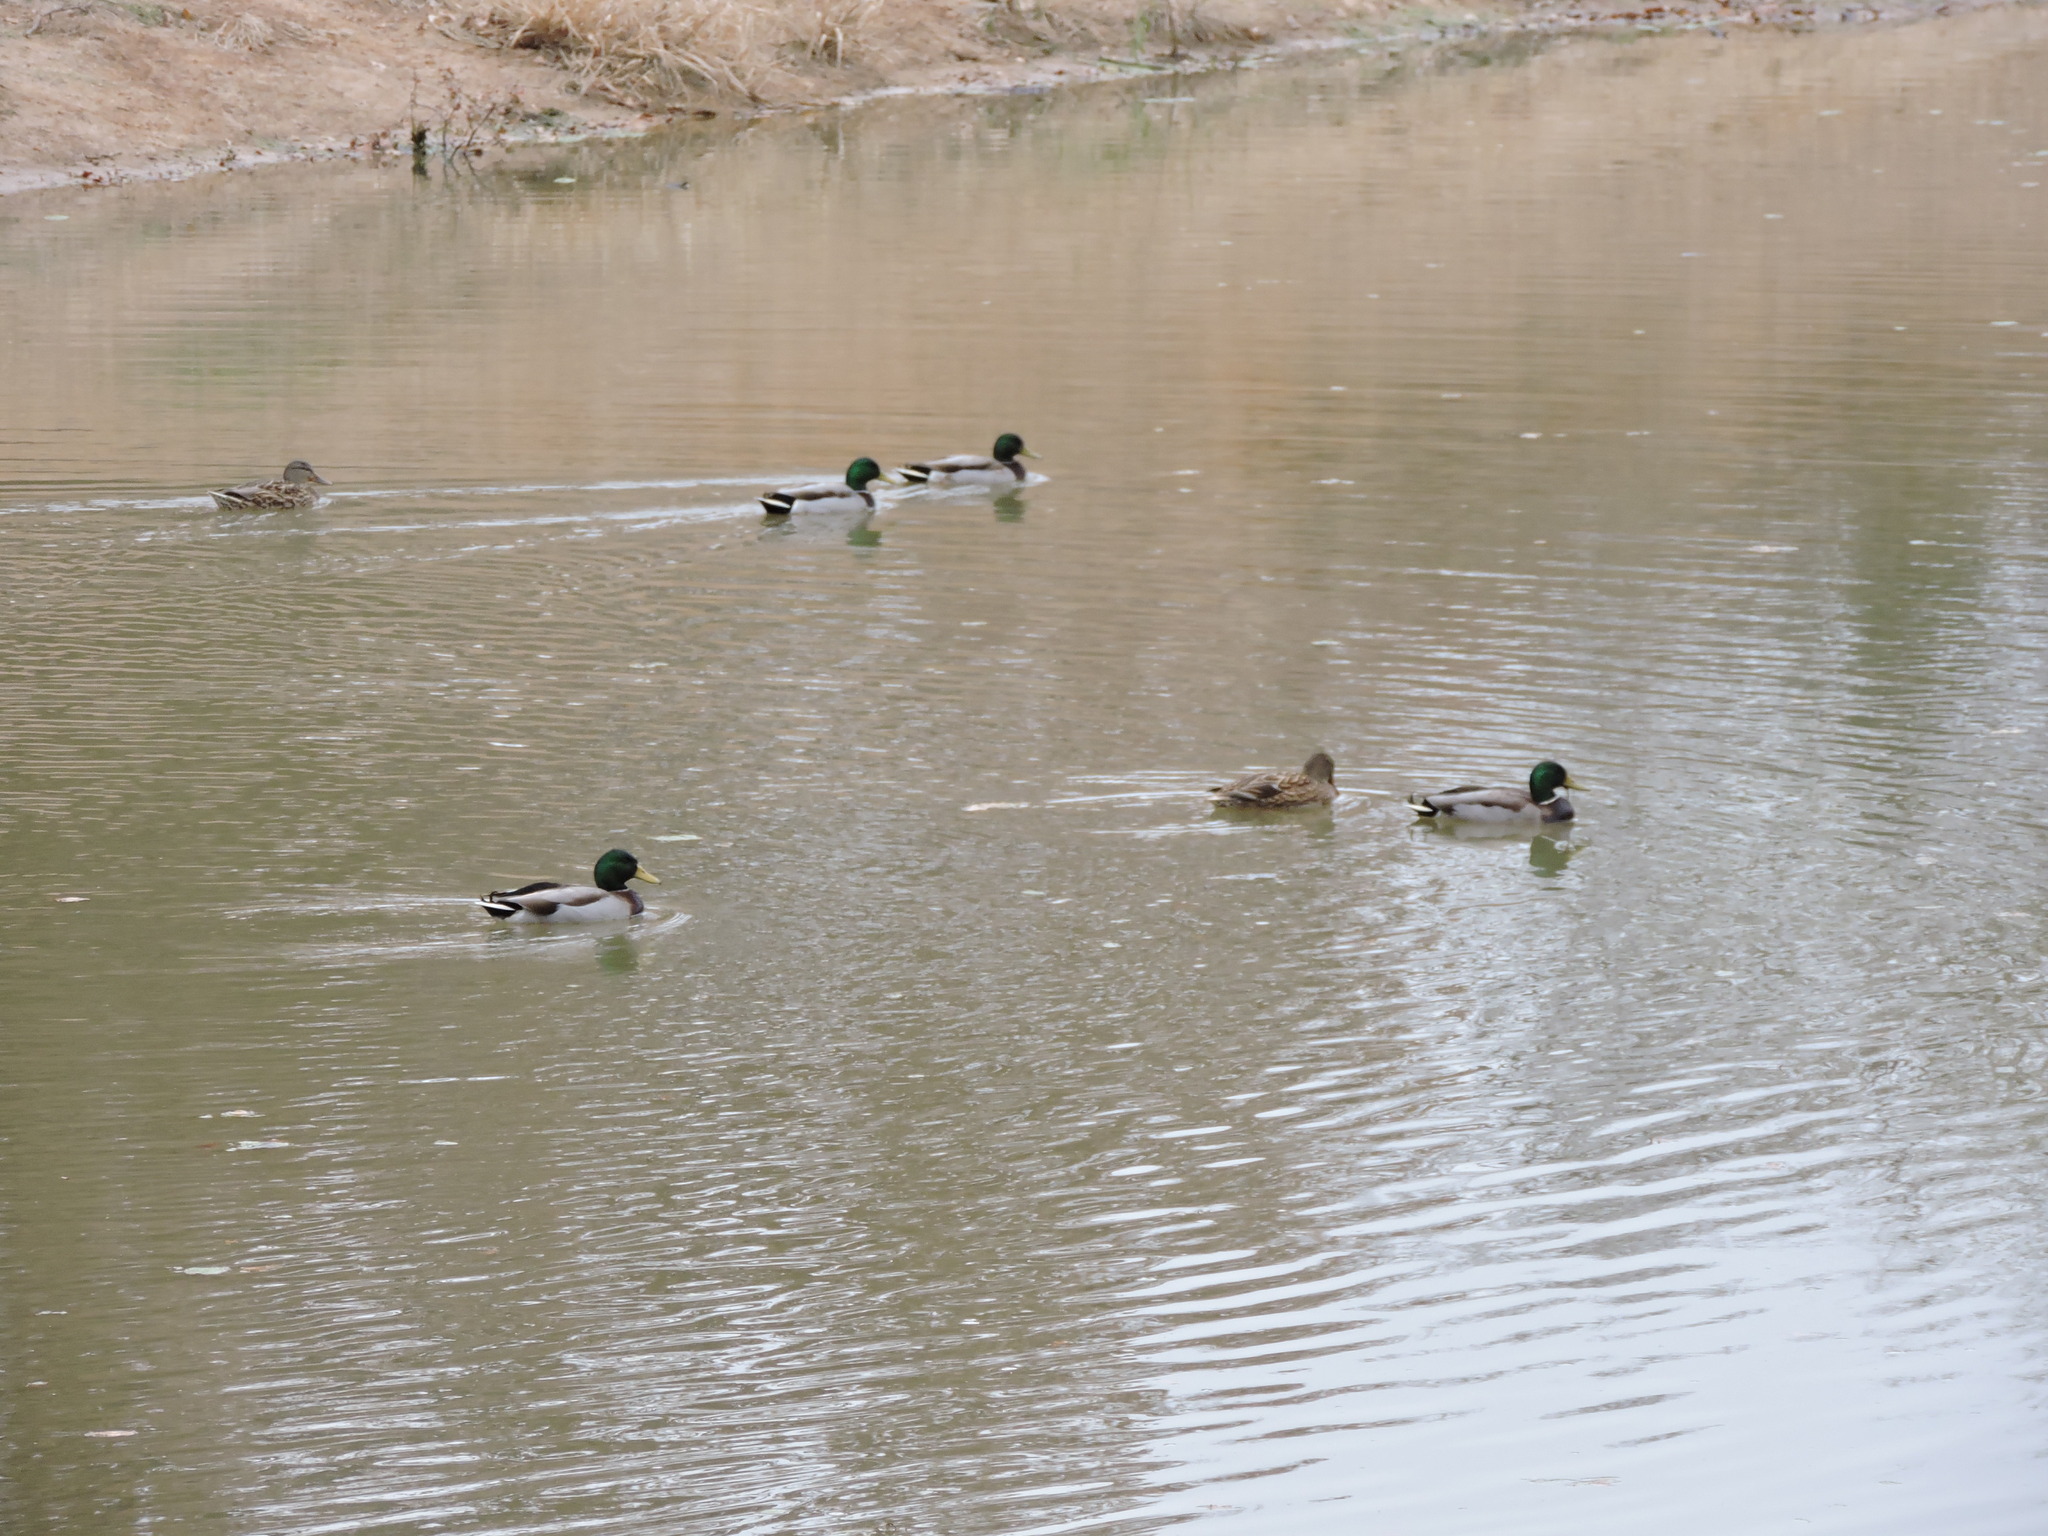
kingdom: Animalia
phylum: Chordata
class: Aves
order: Anseriformes
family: Anatidae
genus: Anas
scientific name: Anas platyrhynchos
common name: Mallard
